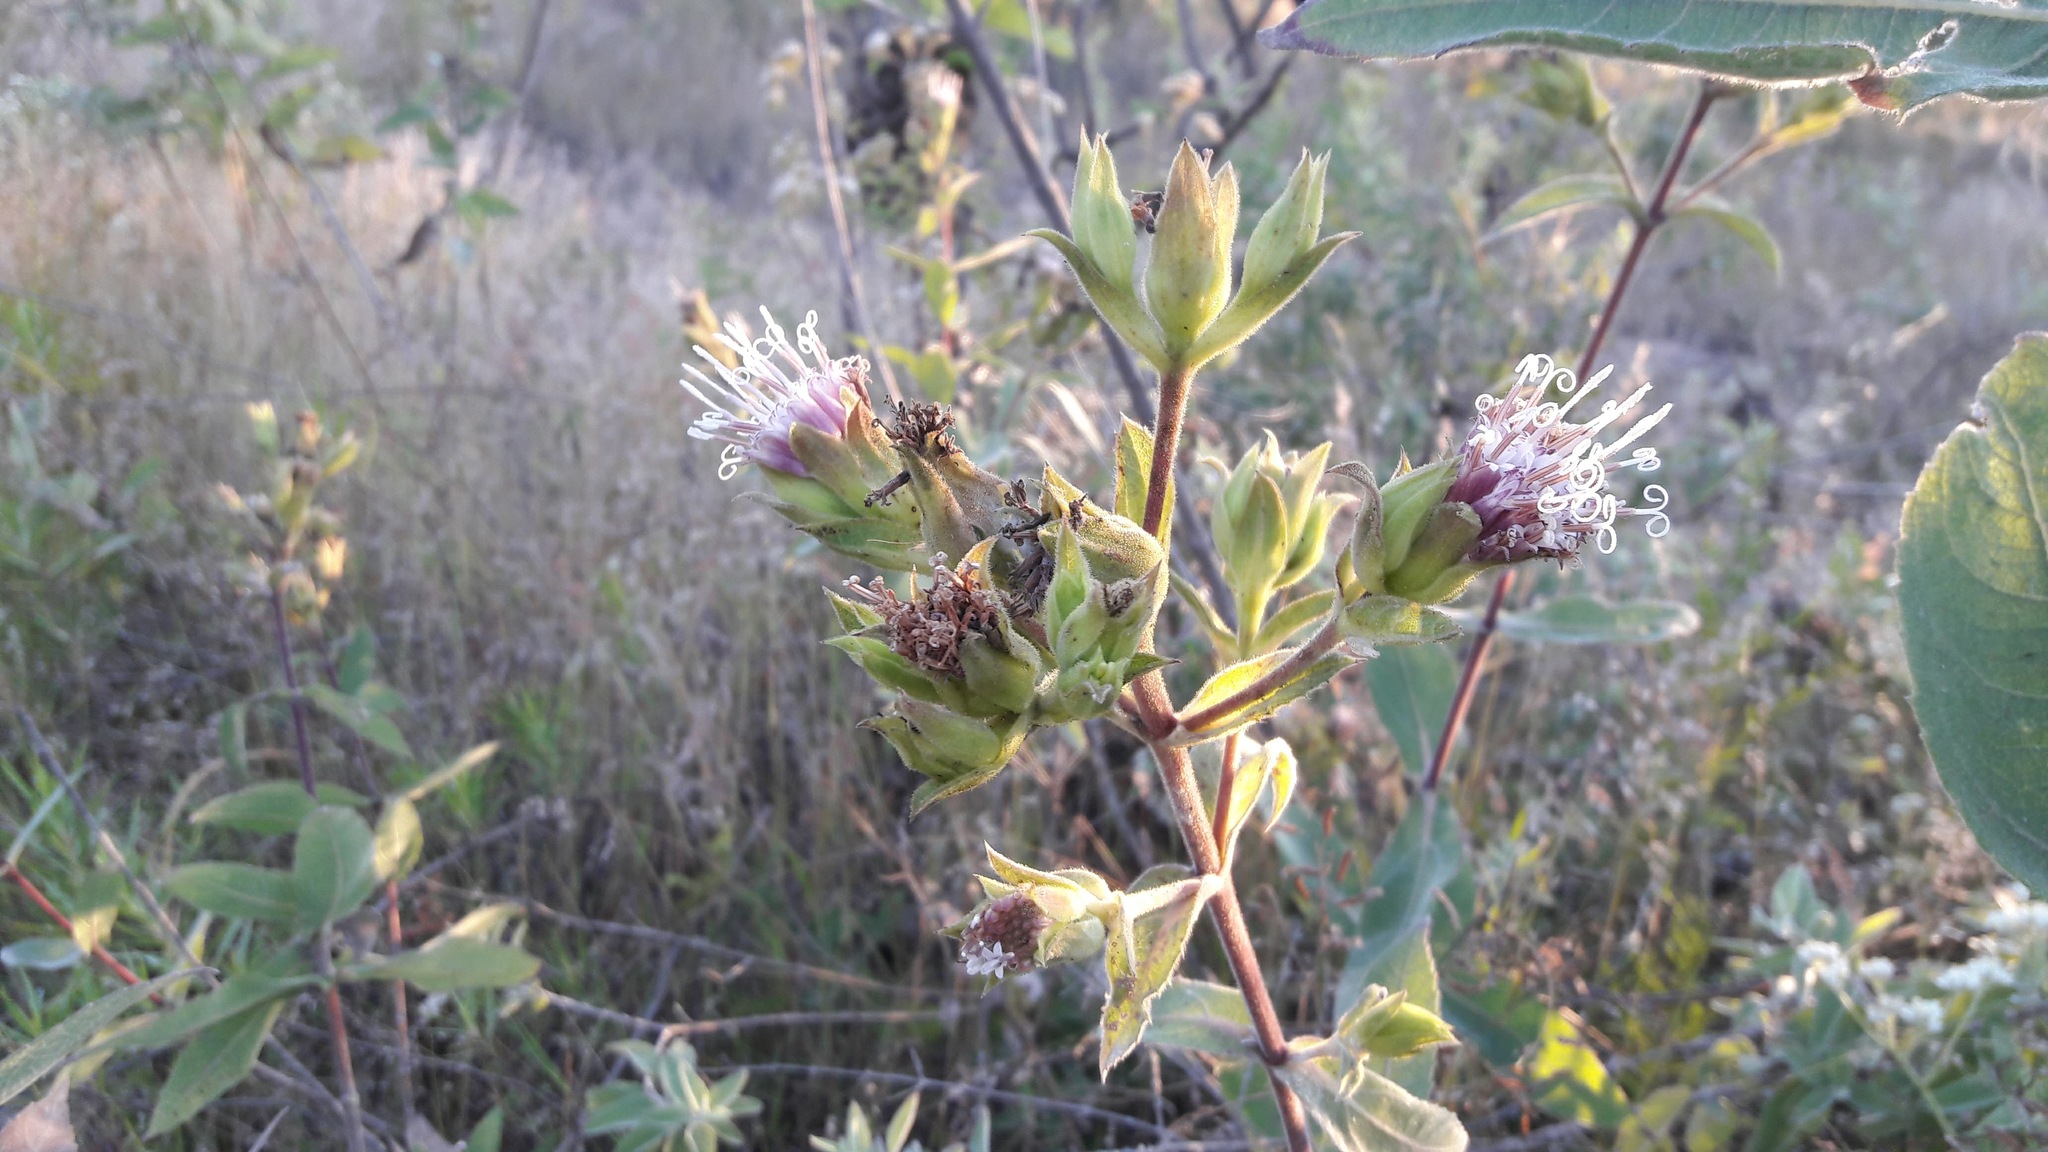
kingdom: Plantae
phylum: Tracheophyta
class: Magnoliopsida
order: Asterales
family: Asteraceae
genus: Lagascea
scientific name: Lagascea helianthifolia
